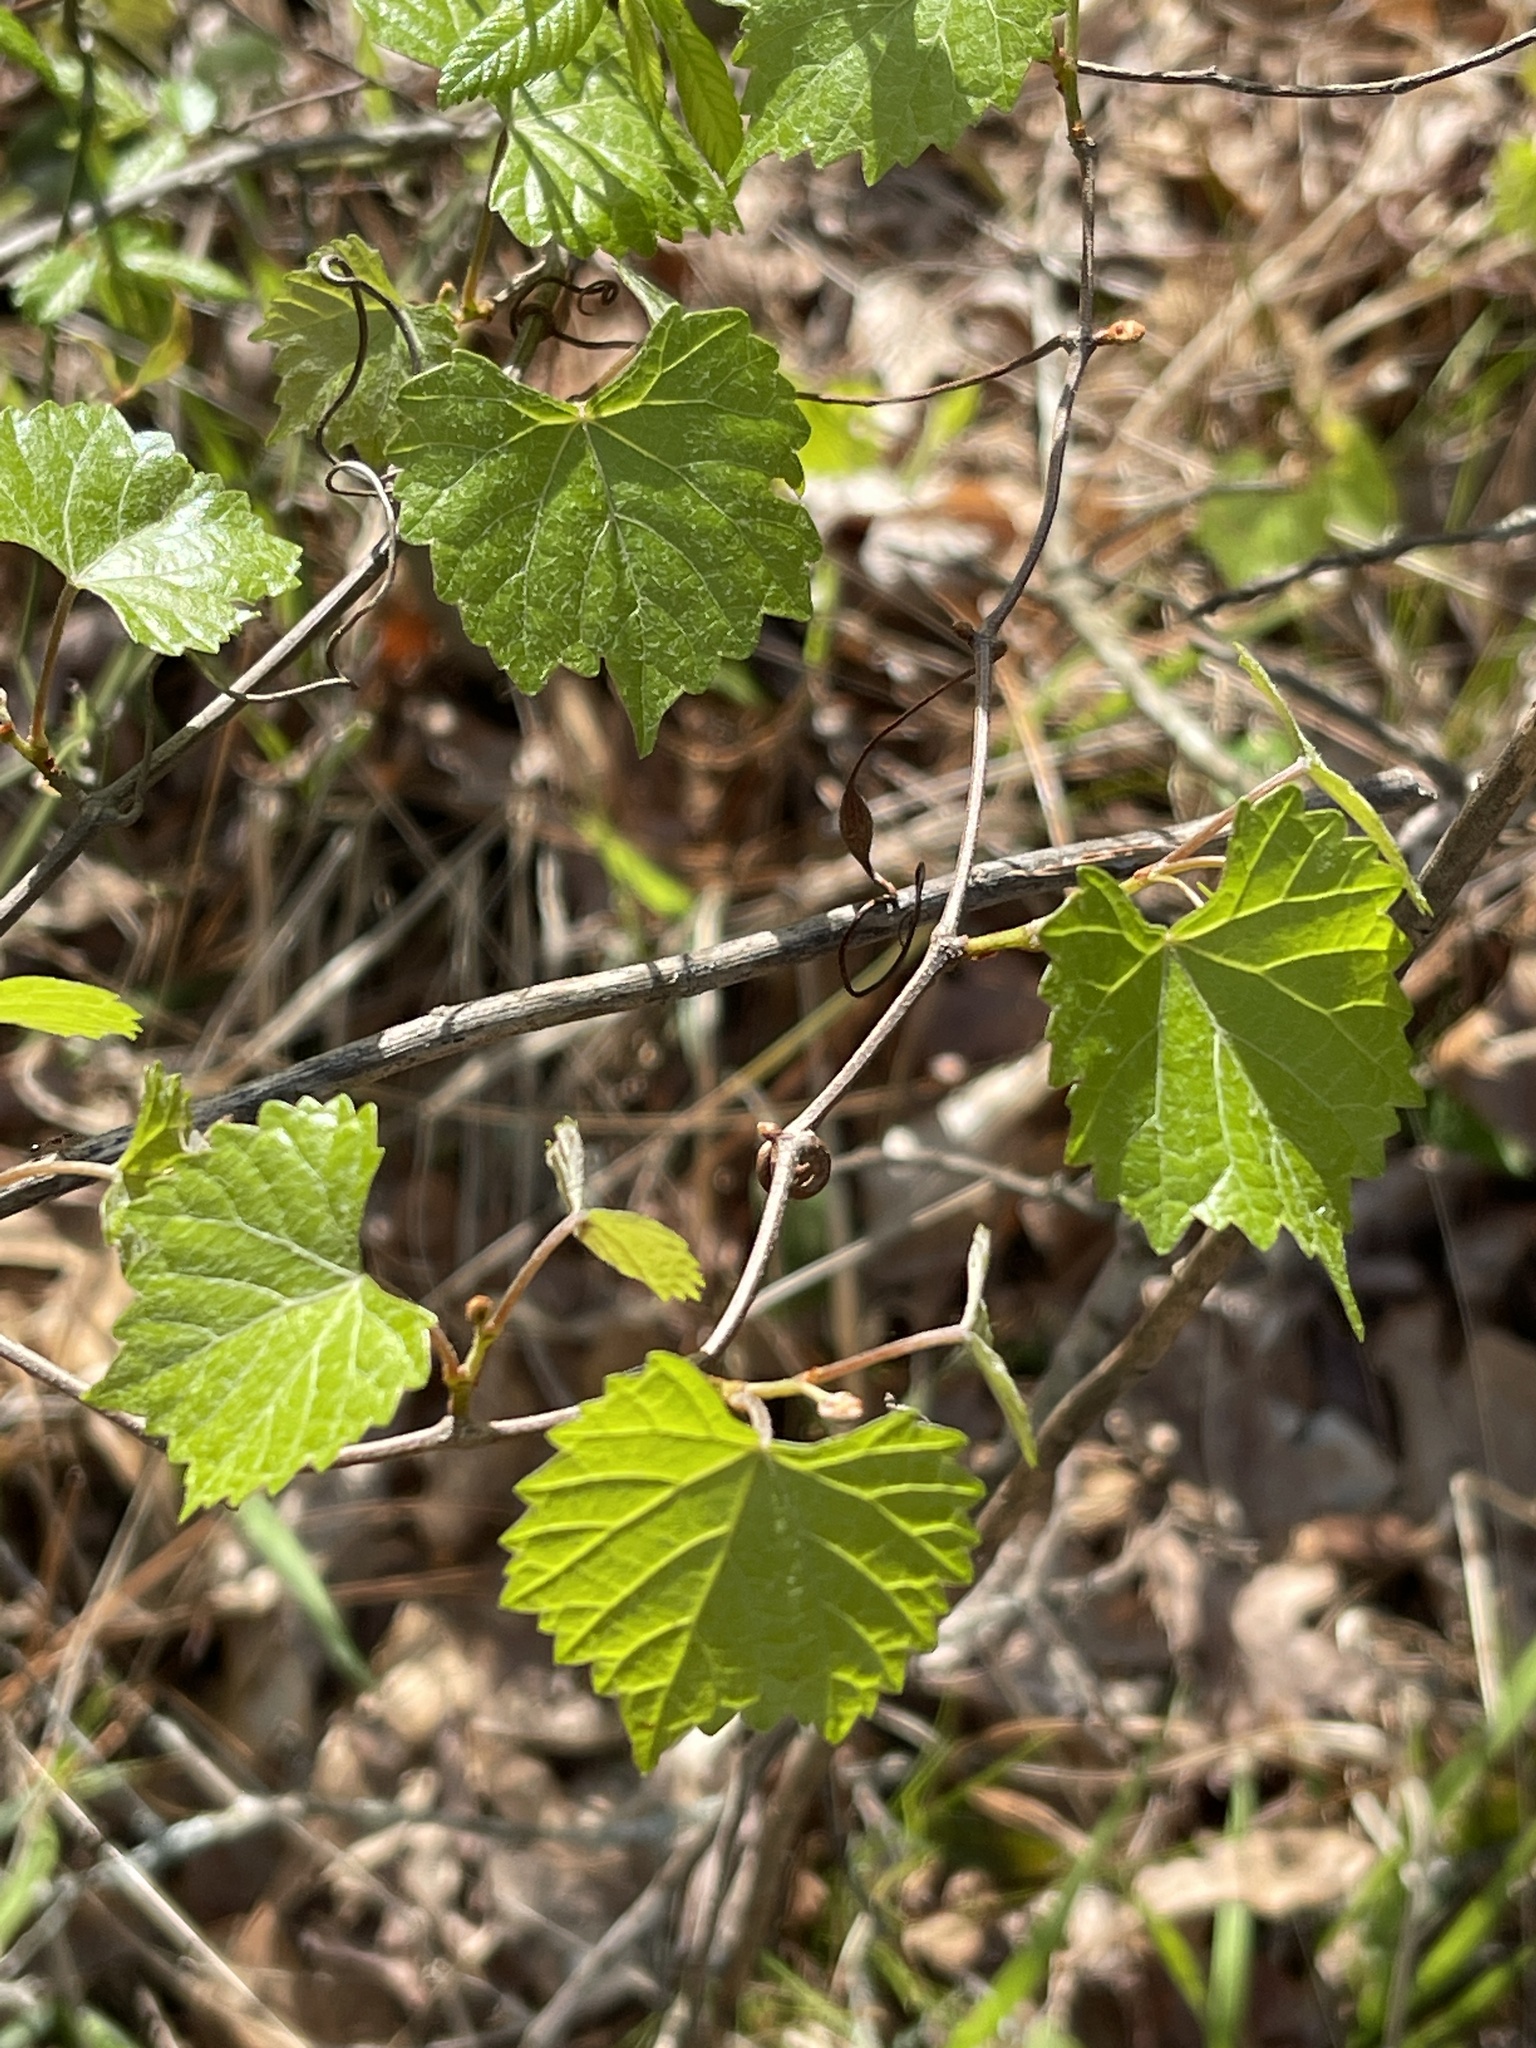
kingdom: Plantae
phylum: Tracheophyta
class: Magnoliopsida
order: Vitales
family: Vitaceae
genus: Vitis
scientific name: Vitis rotundifolia
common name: Muscadine grape
